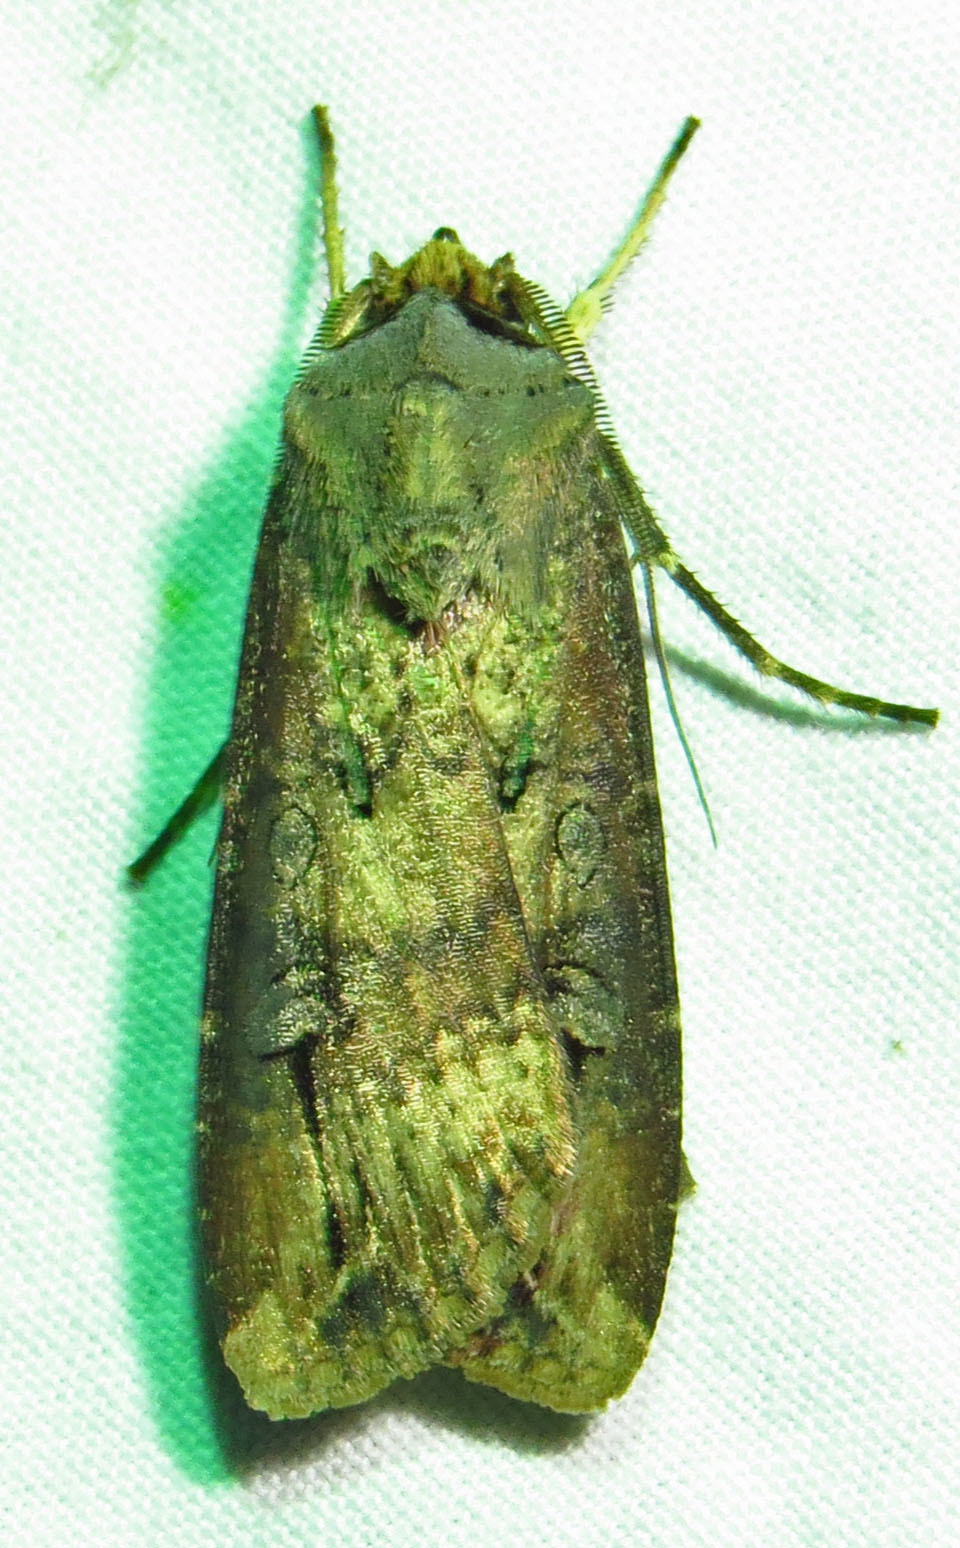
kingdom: Animalia
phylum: Arthropoda
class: Insecta
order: Lepidoptera
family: Noctuidae
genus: Agrotis
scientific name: Agrotis ipsilon
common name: Dark sword-grass
